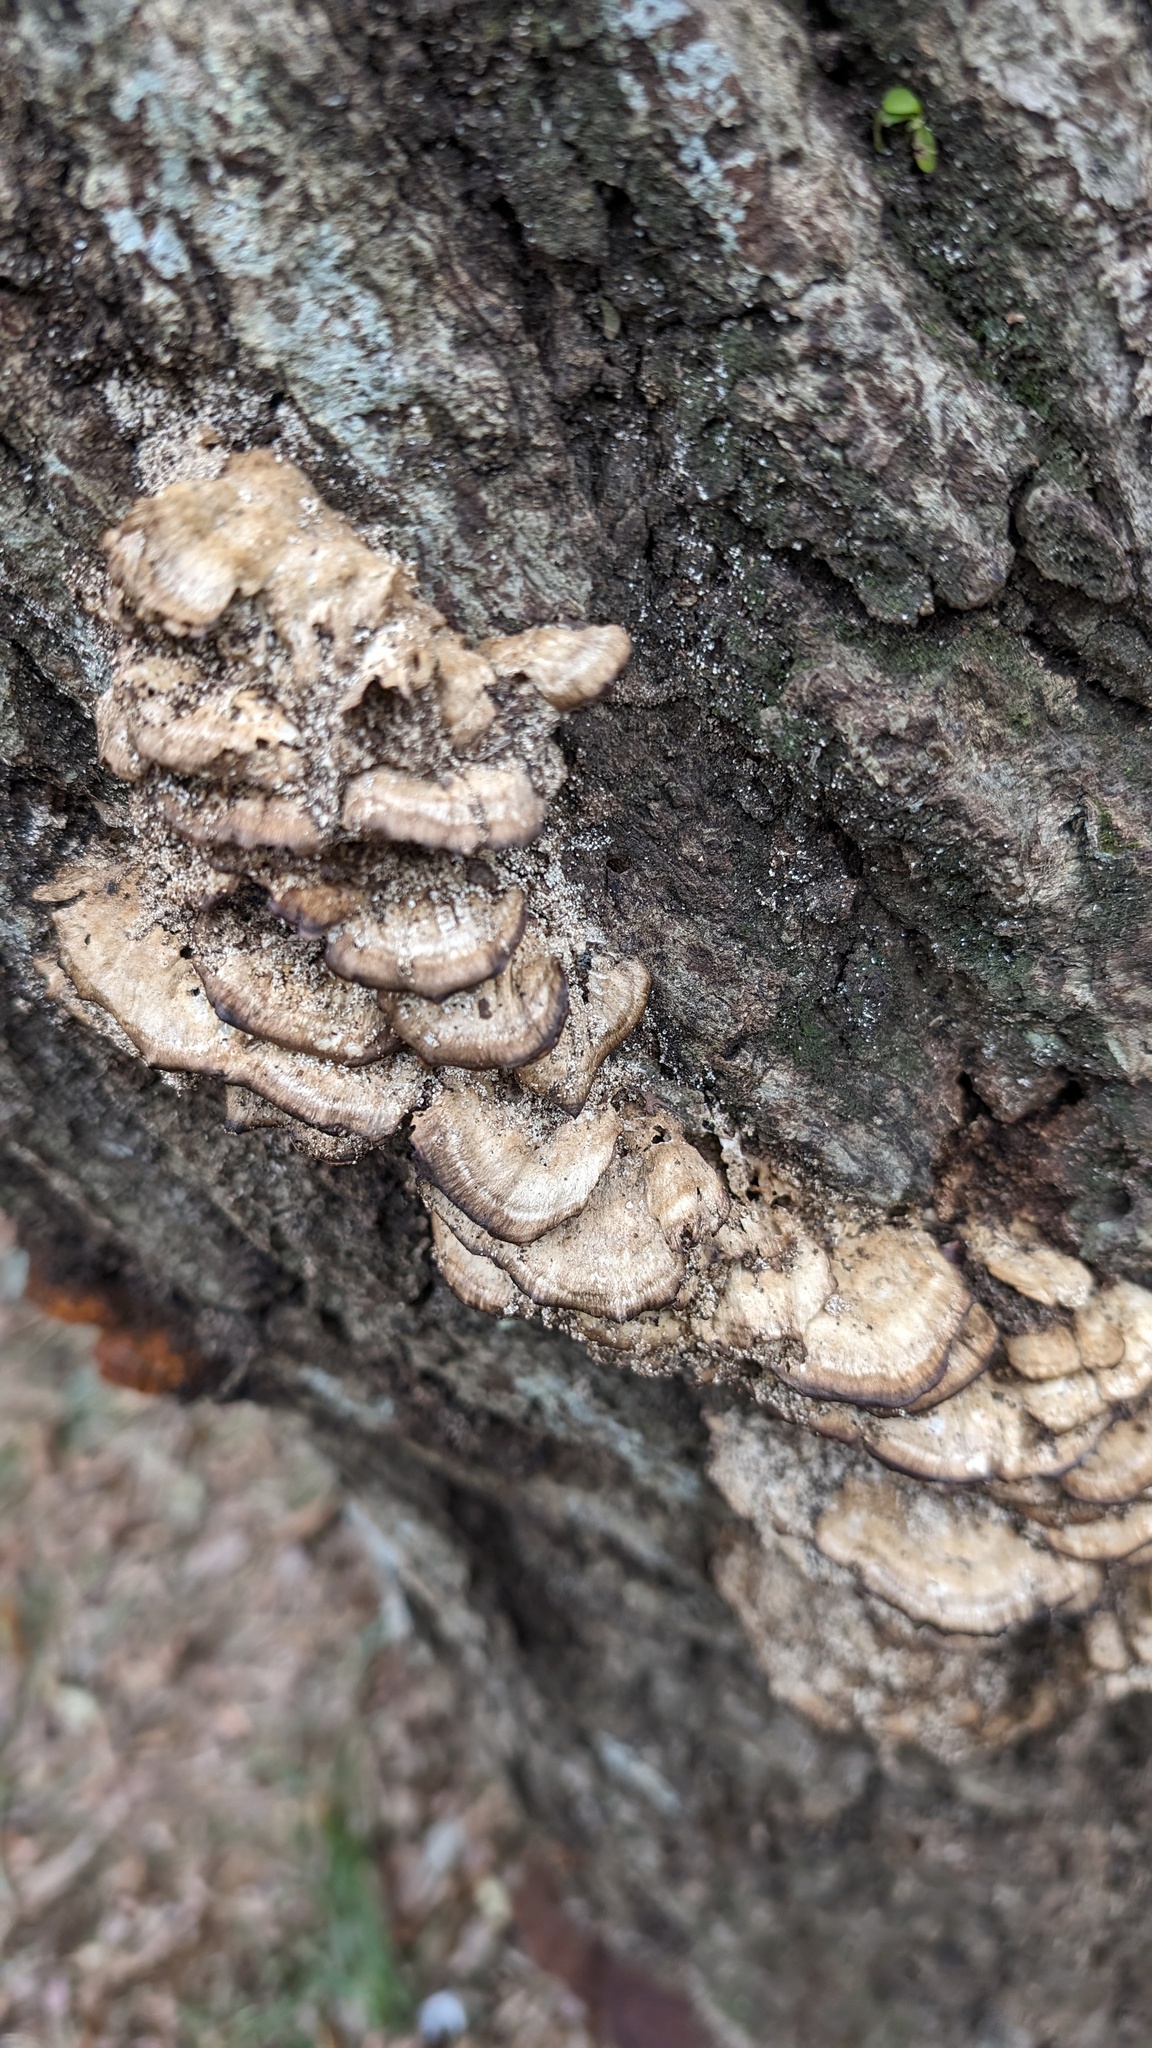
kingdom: Fungi
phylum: Basidiomycota
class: Agaricomycetes
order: Polyporales
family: Phanerochaetaceae
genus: Bjerkandera
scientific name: Bjerkandera adusta
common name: Smoky bracket
